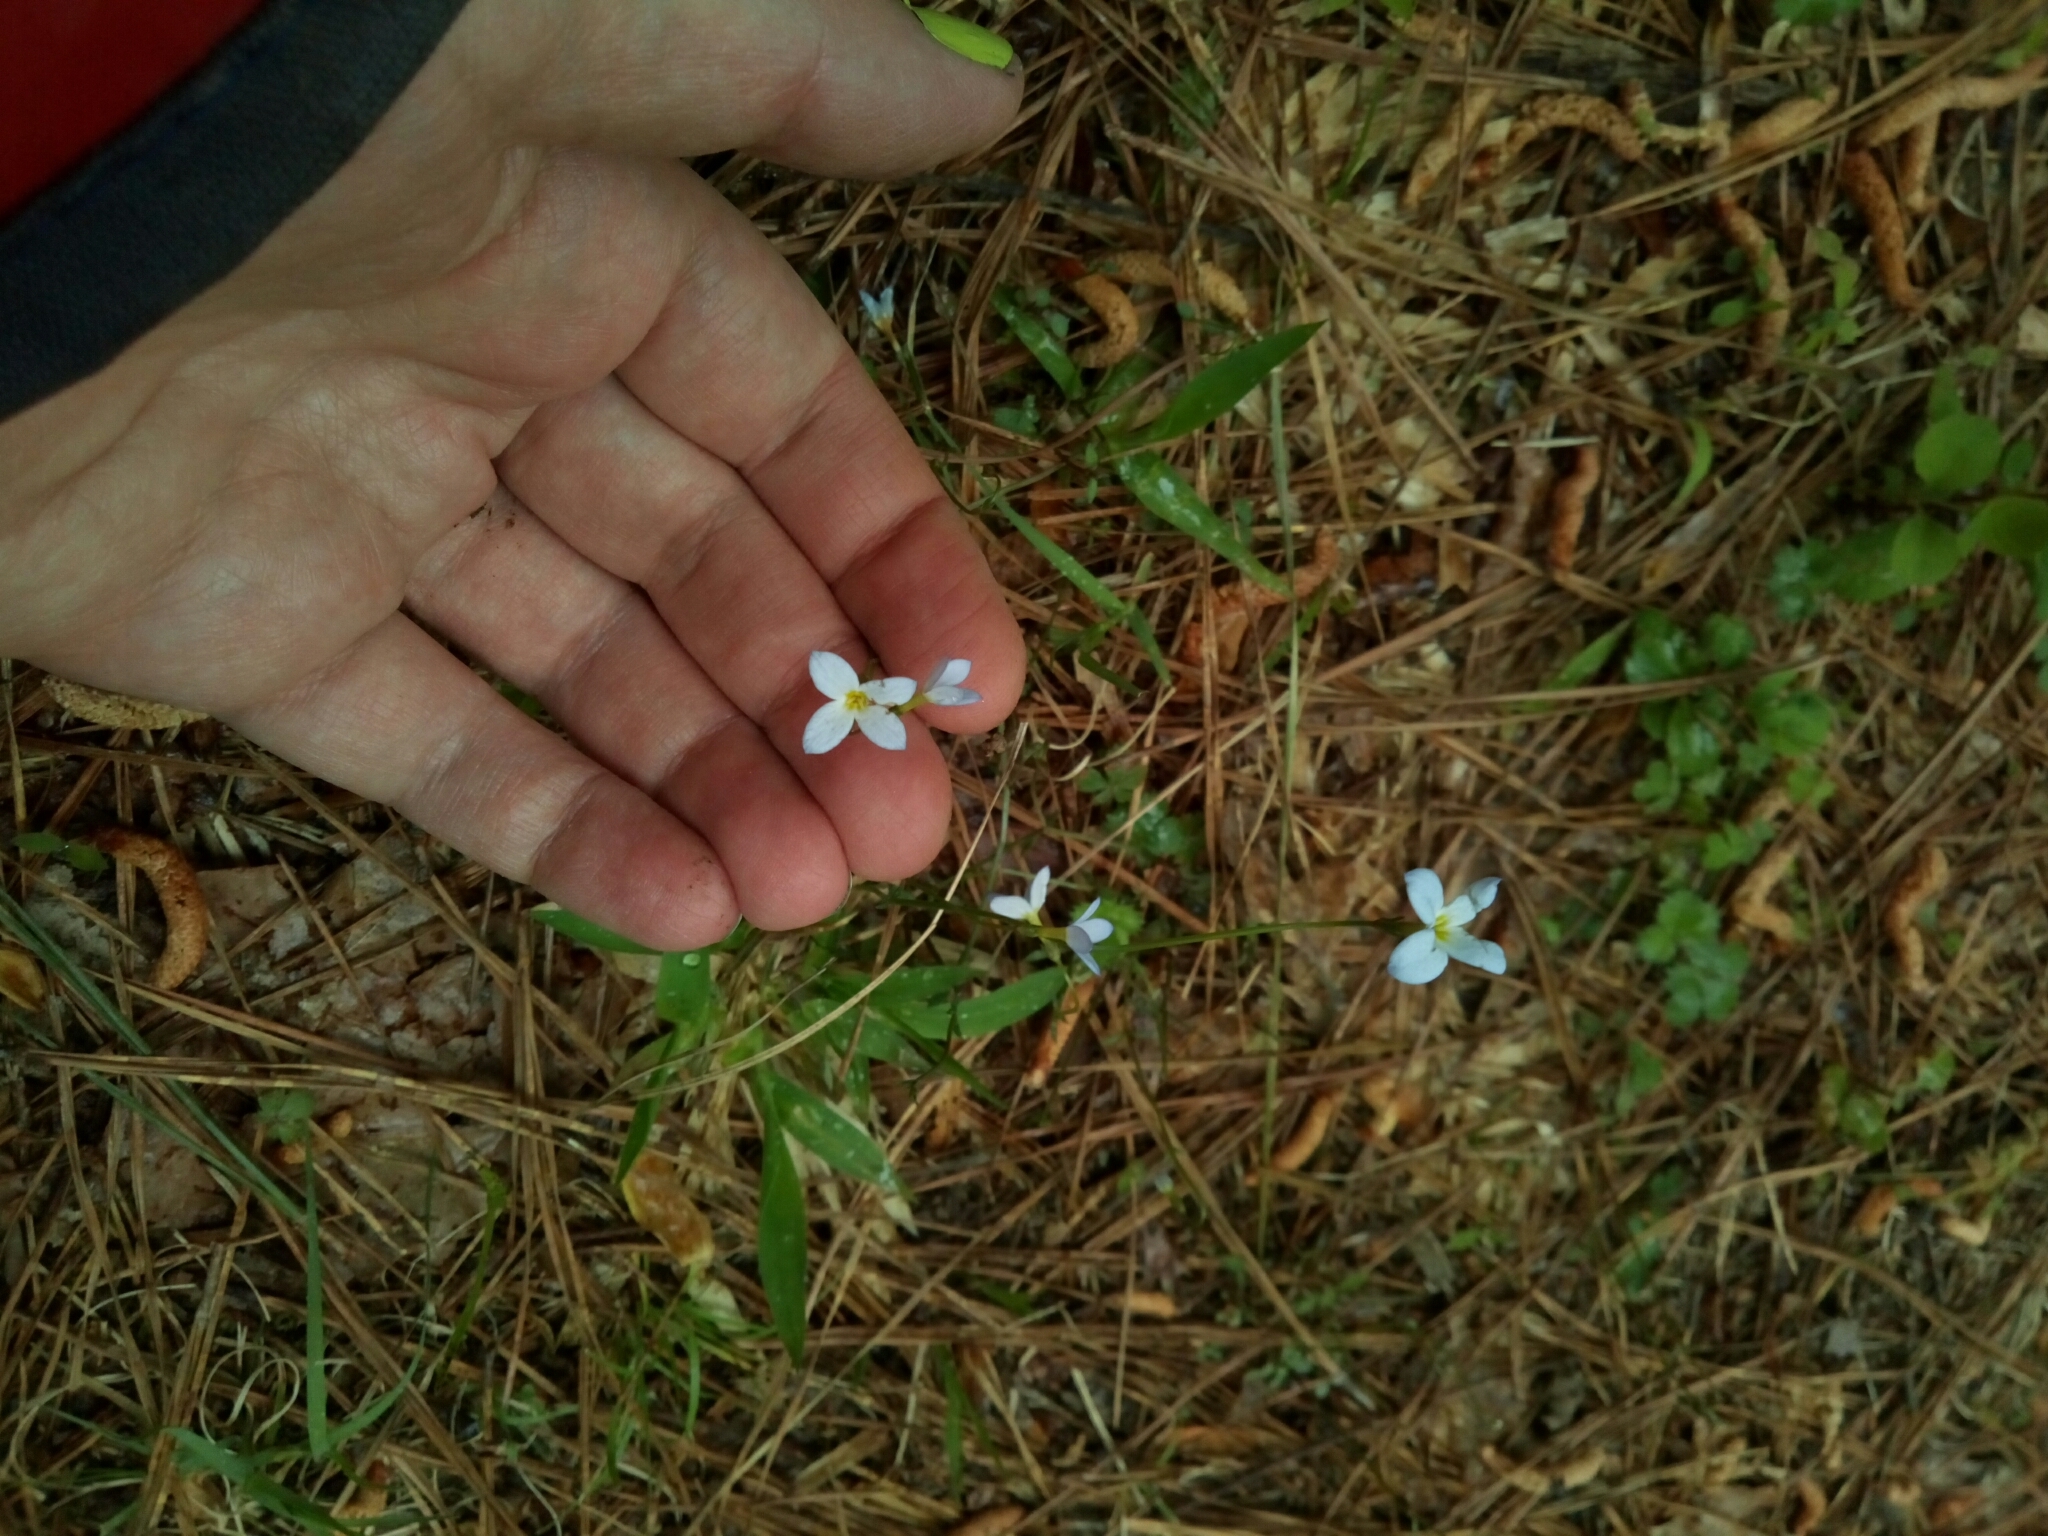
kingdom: Plantae
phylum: Tracheophyta
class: Magnoliopsida
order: Gentianales
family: Rubiaceae
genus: Houstonia
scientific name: Houstonia caerulea
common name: Bluets
